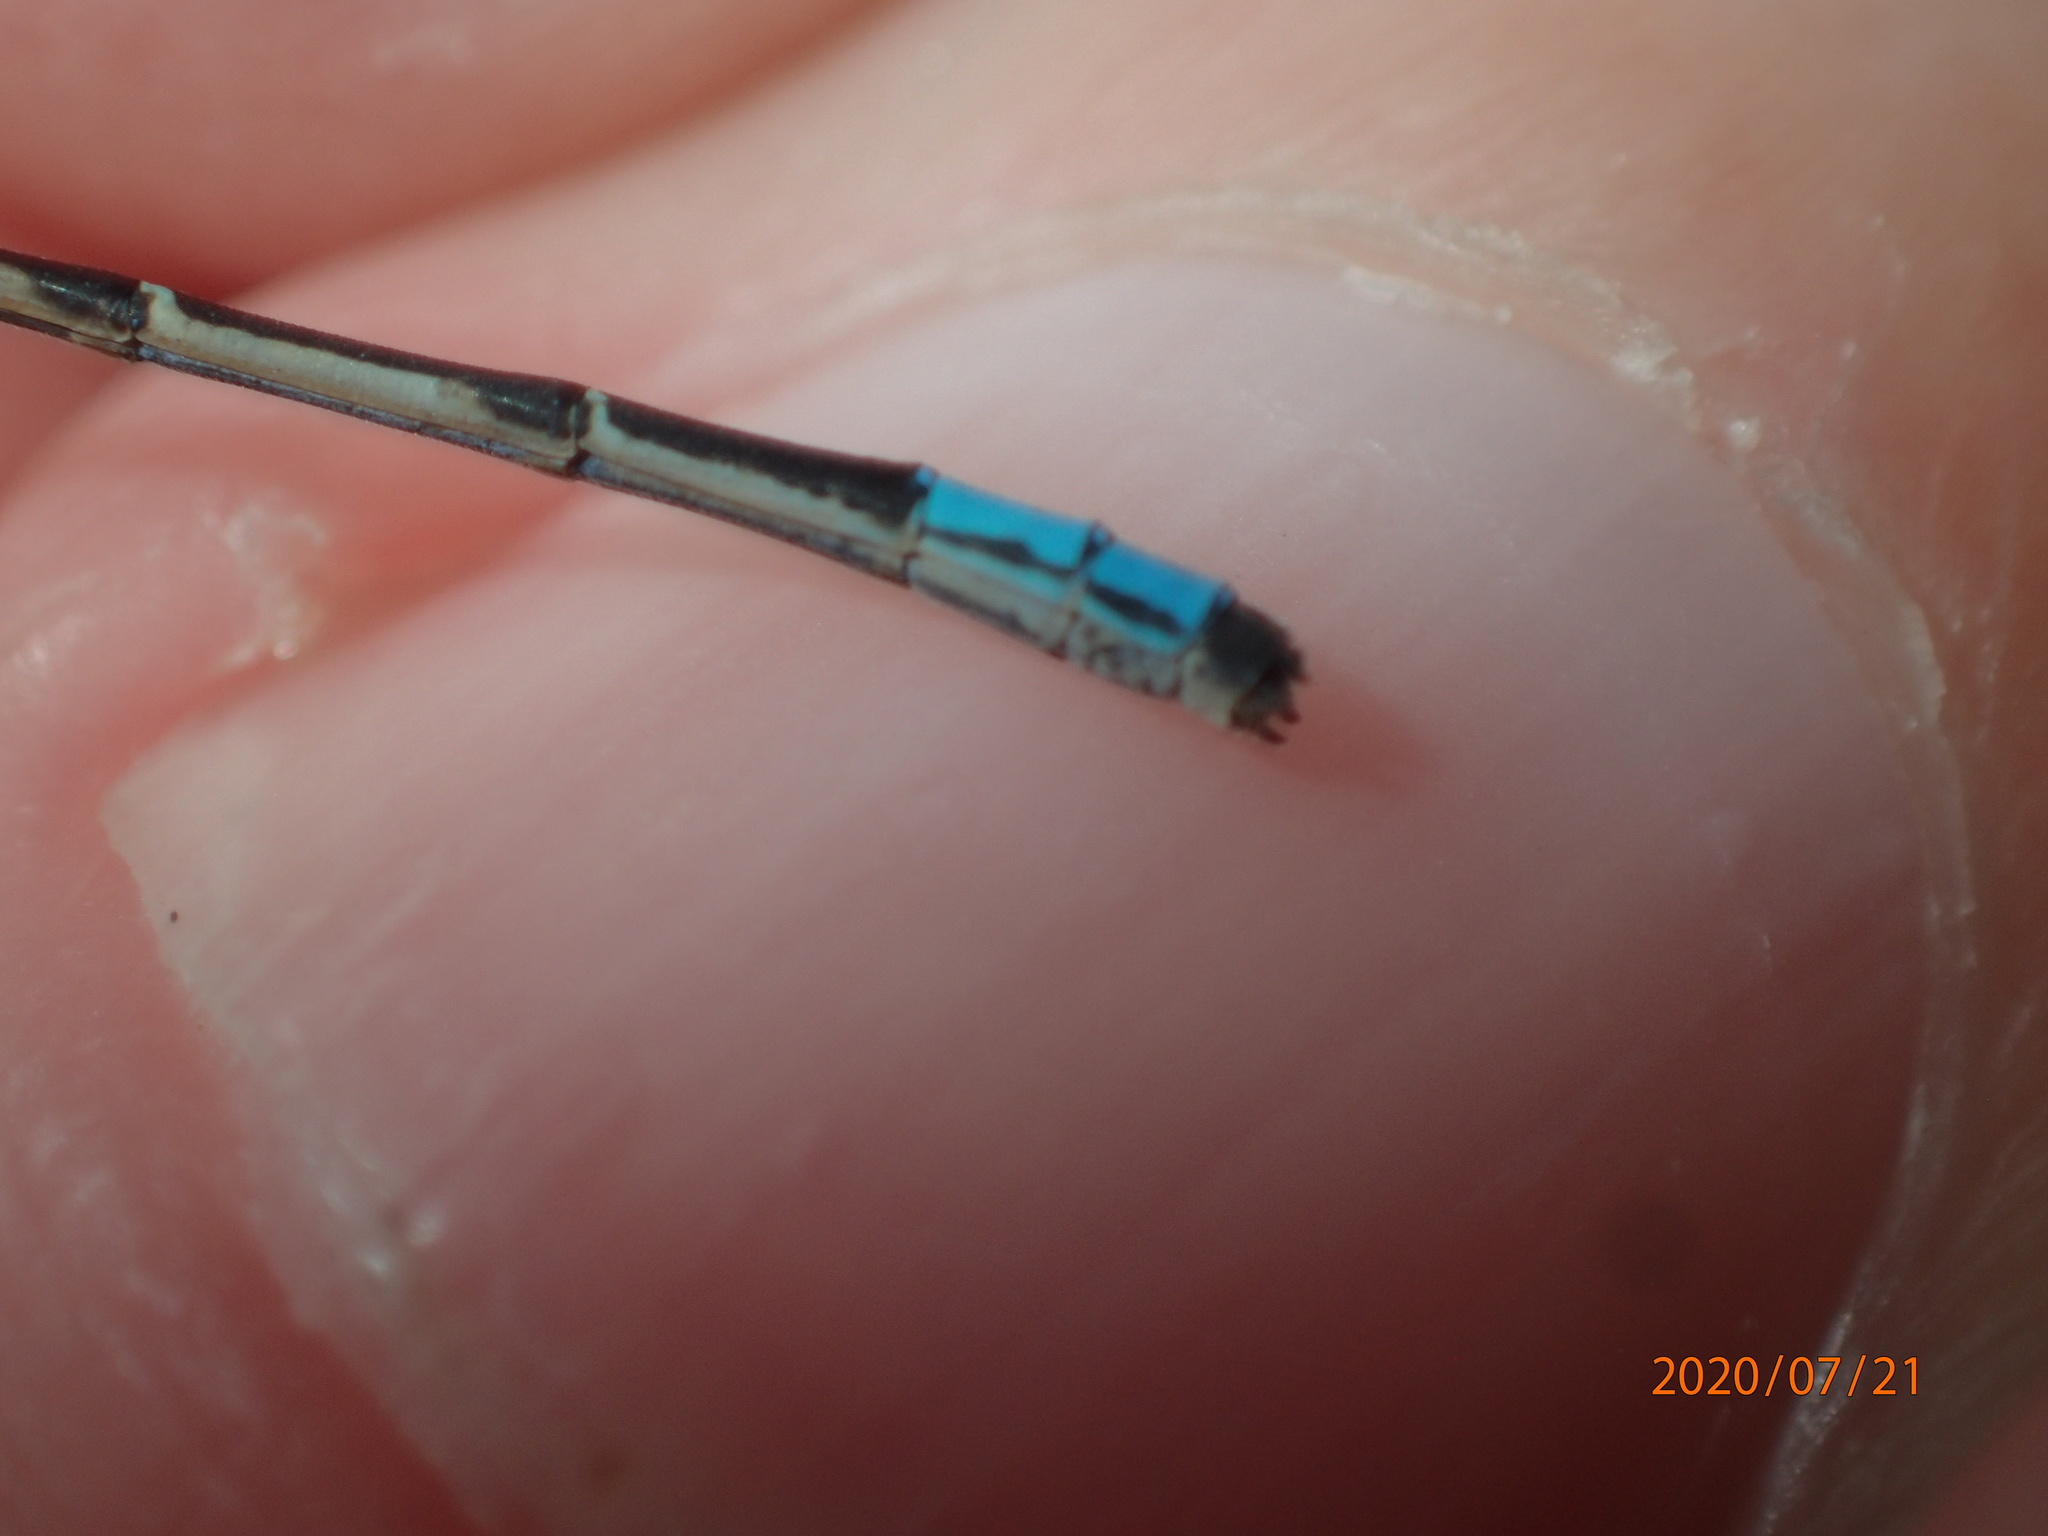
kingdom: Animalia
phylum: Arthropoda
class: Insecta
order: Odonata
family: Coenagrionidae
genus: Enallagma
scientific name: Enallagma geminatum
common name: Skimming bluet
